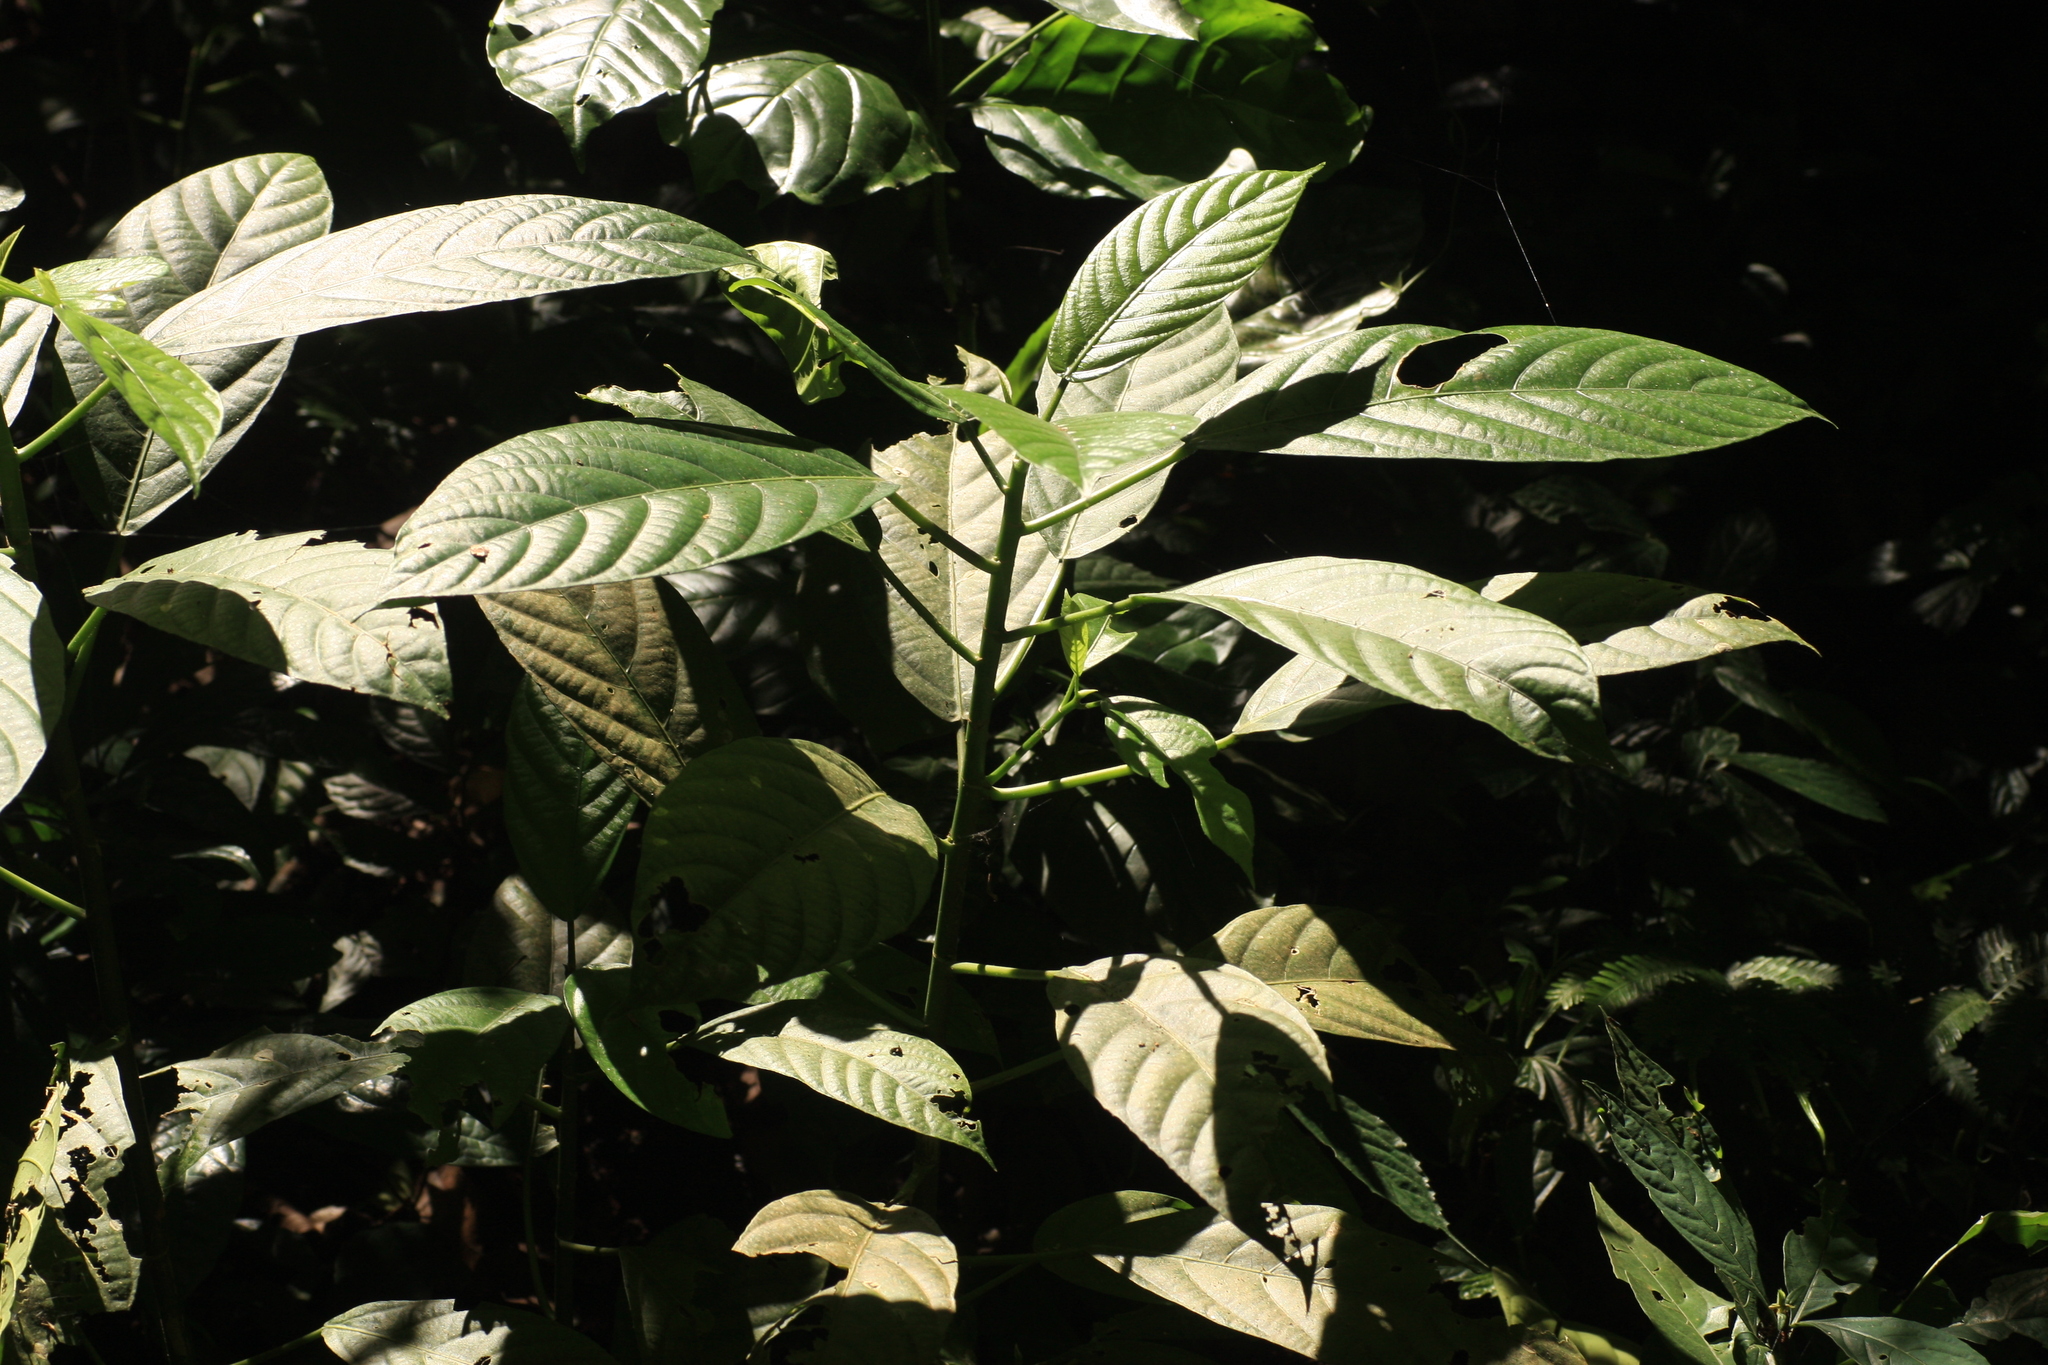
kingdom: Plantae
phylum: Tracheophyta
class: Magnoliopsida
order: Rosales
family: Urticaceae
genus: Dendrocnide
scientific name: Dendrocnide sinuata
